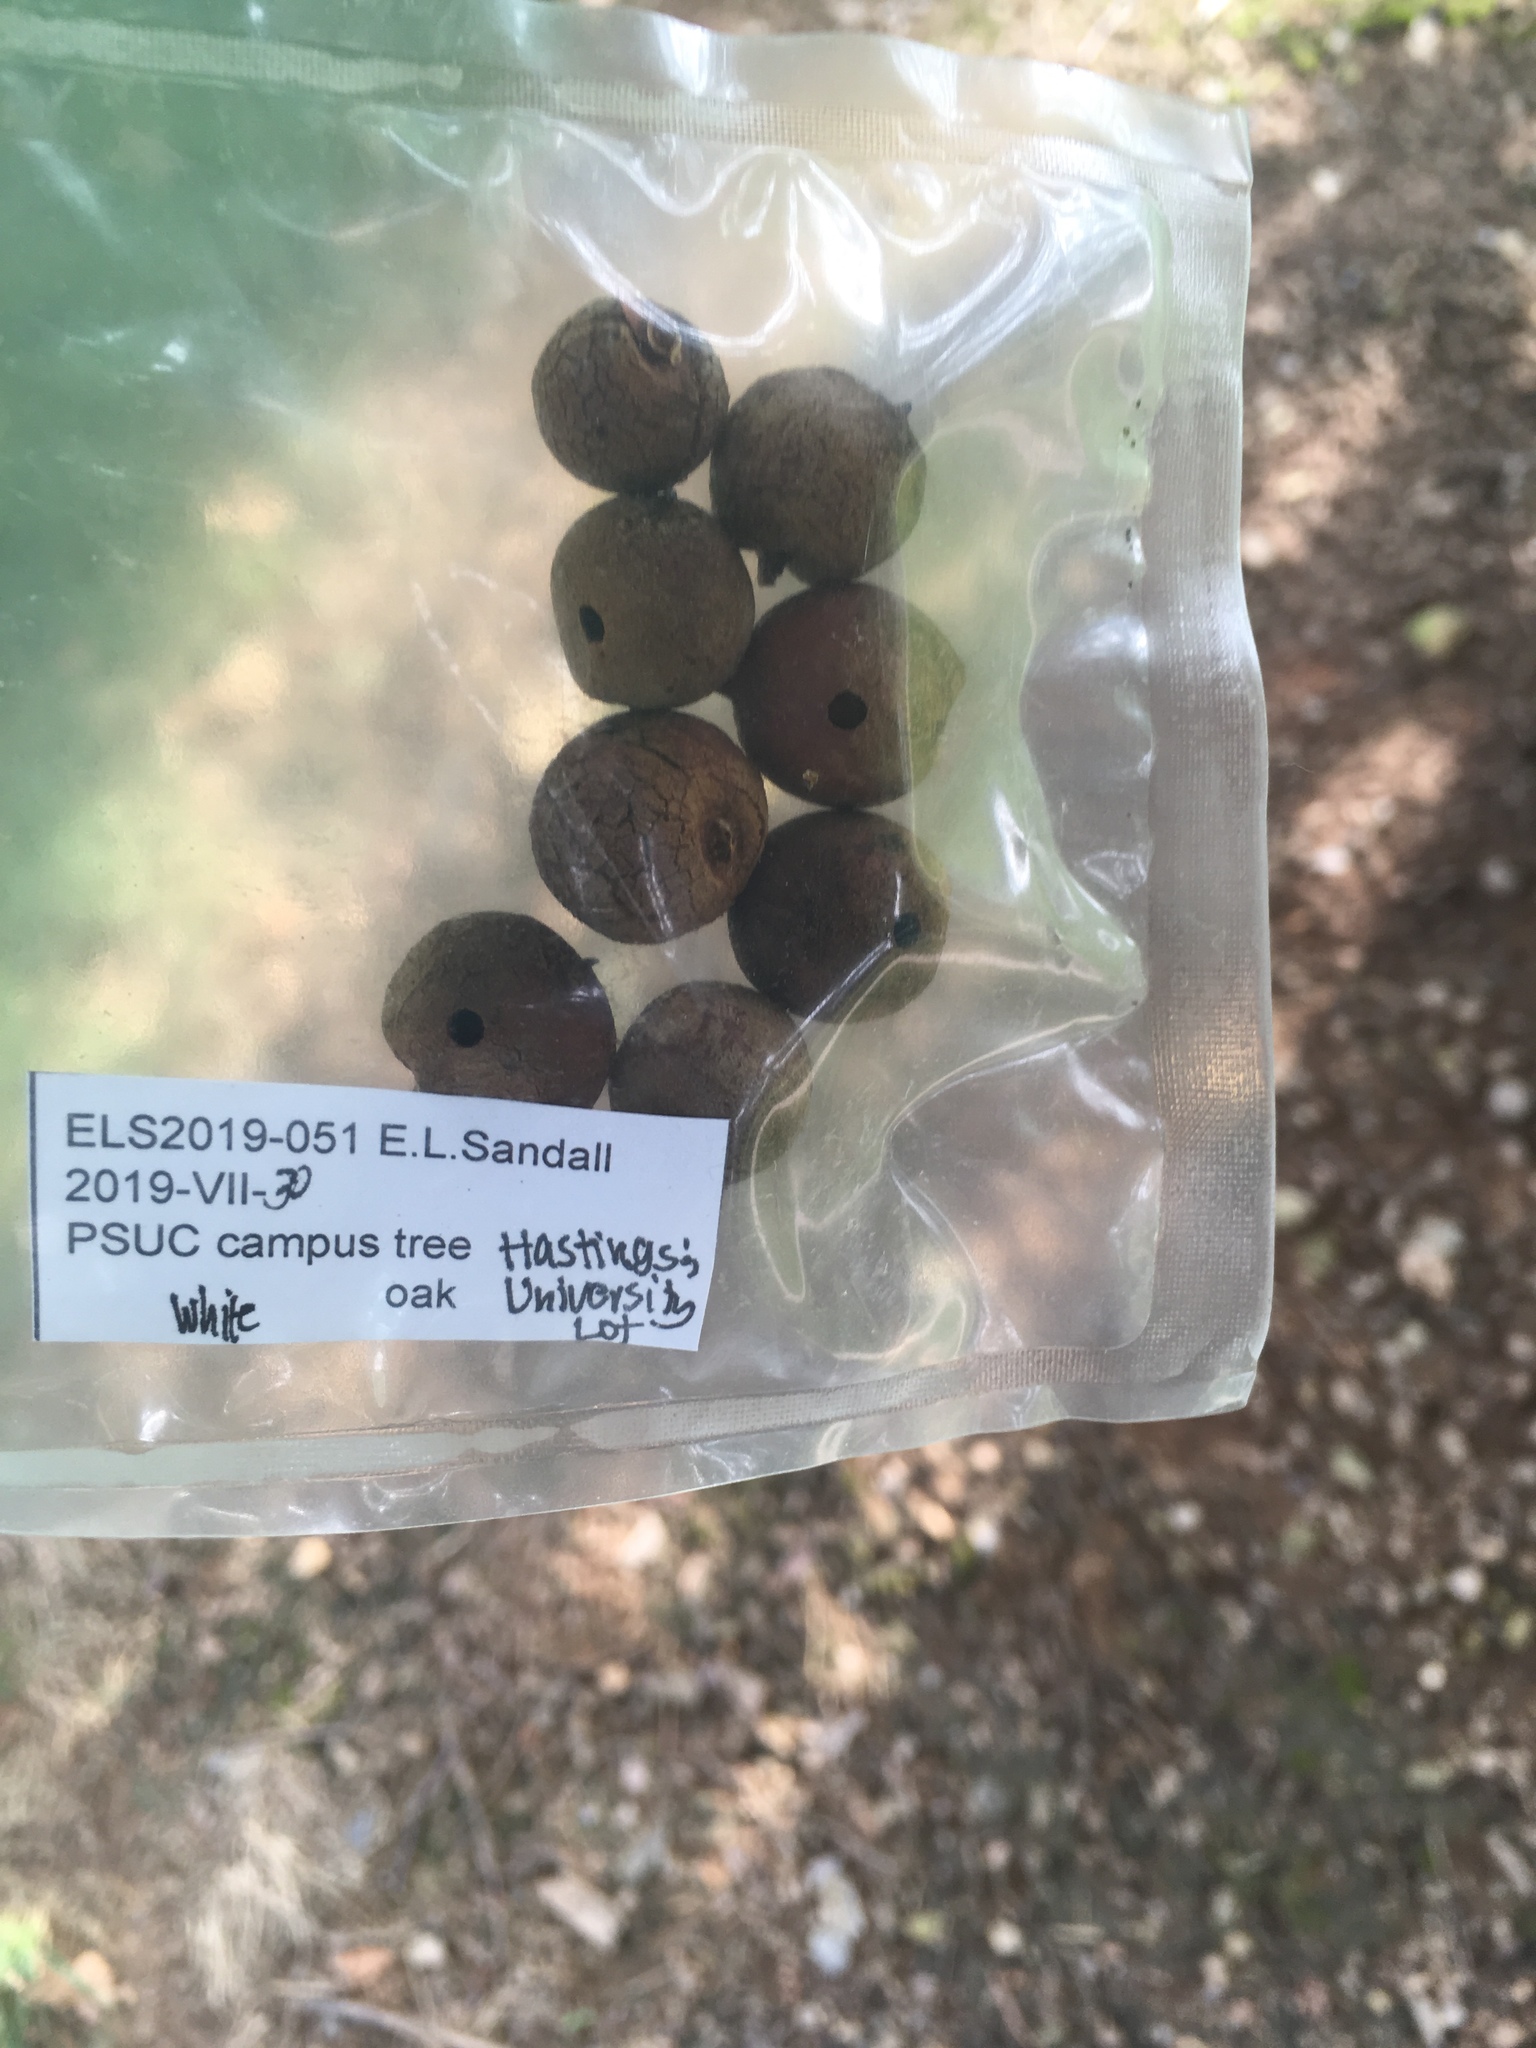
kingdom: Animalia
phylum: Arthropoda
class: Insecta
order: Hymenoptera
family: Cynipidae
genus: Disholcaspis
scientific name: Disholcaspis
